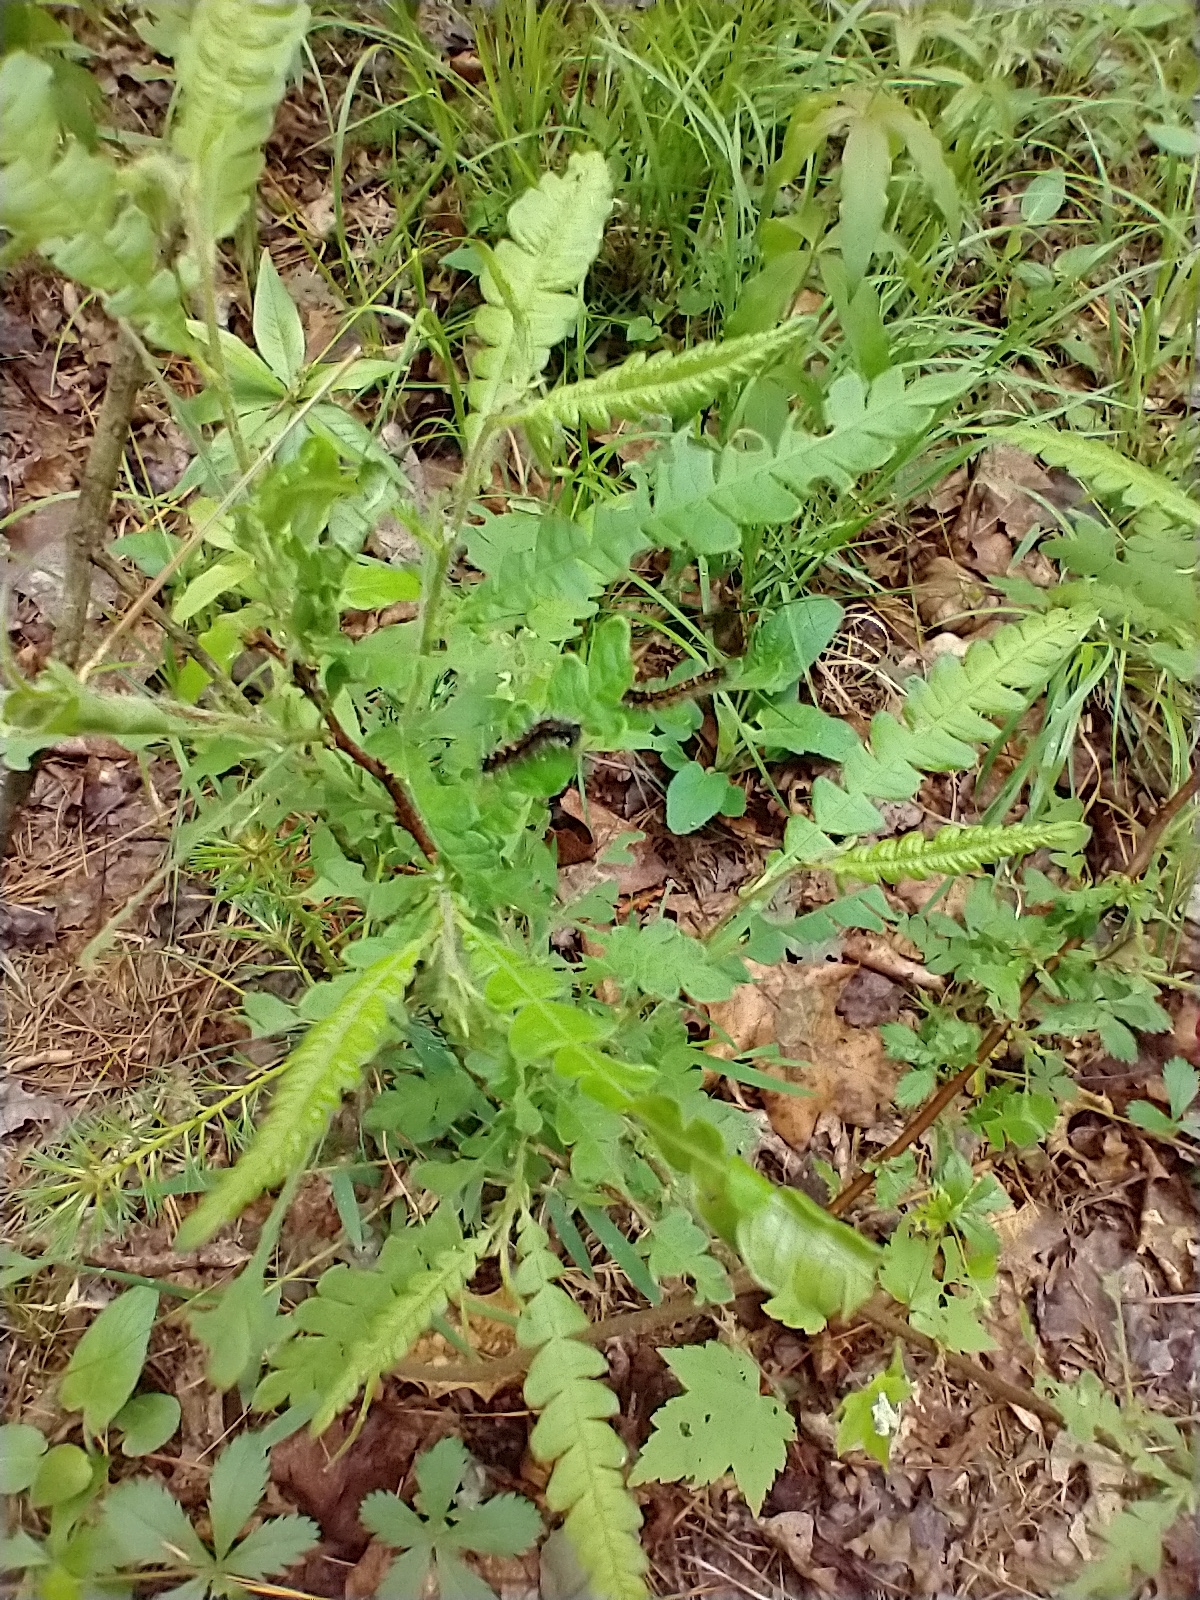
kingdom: Plantae
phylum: Tracheophyta
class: Magnoliopsida
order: Fagales
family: Myricaceae
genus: Comptonia
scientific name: Comptonia peregrina
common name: Sweet-fern
